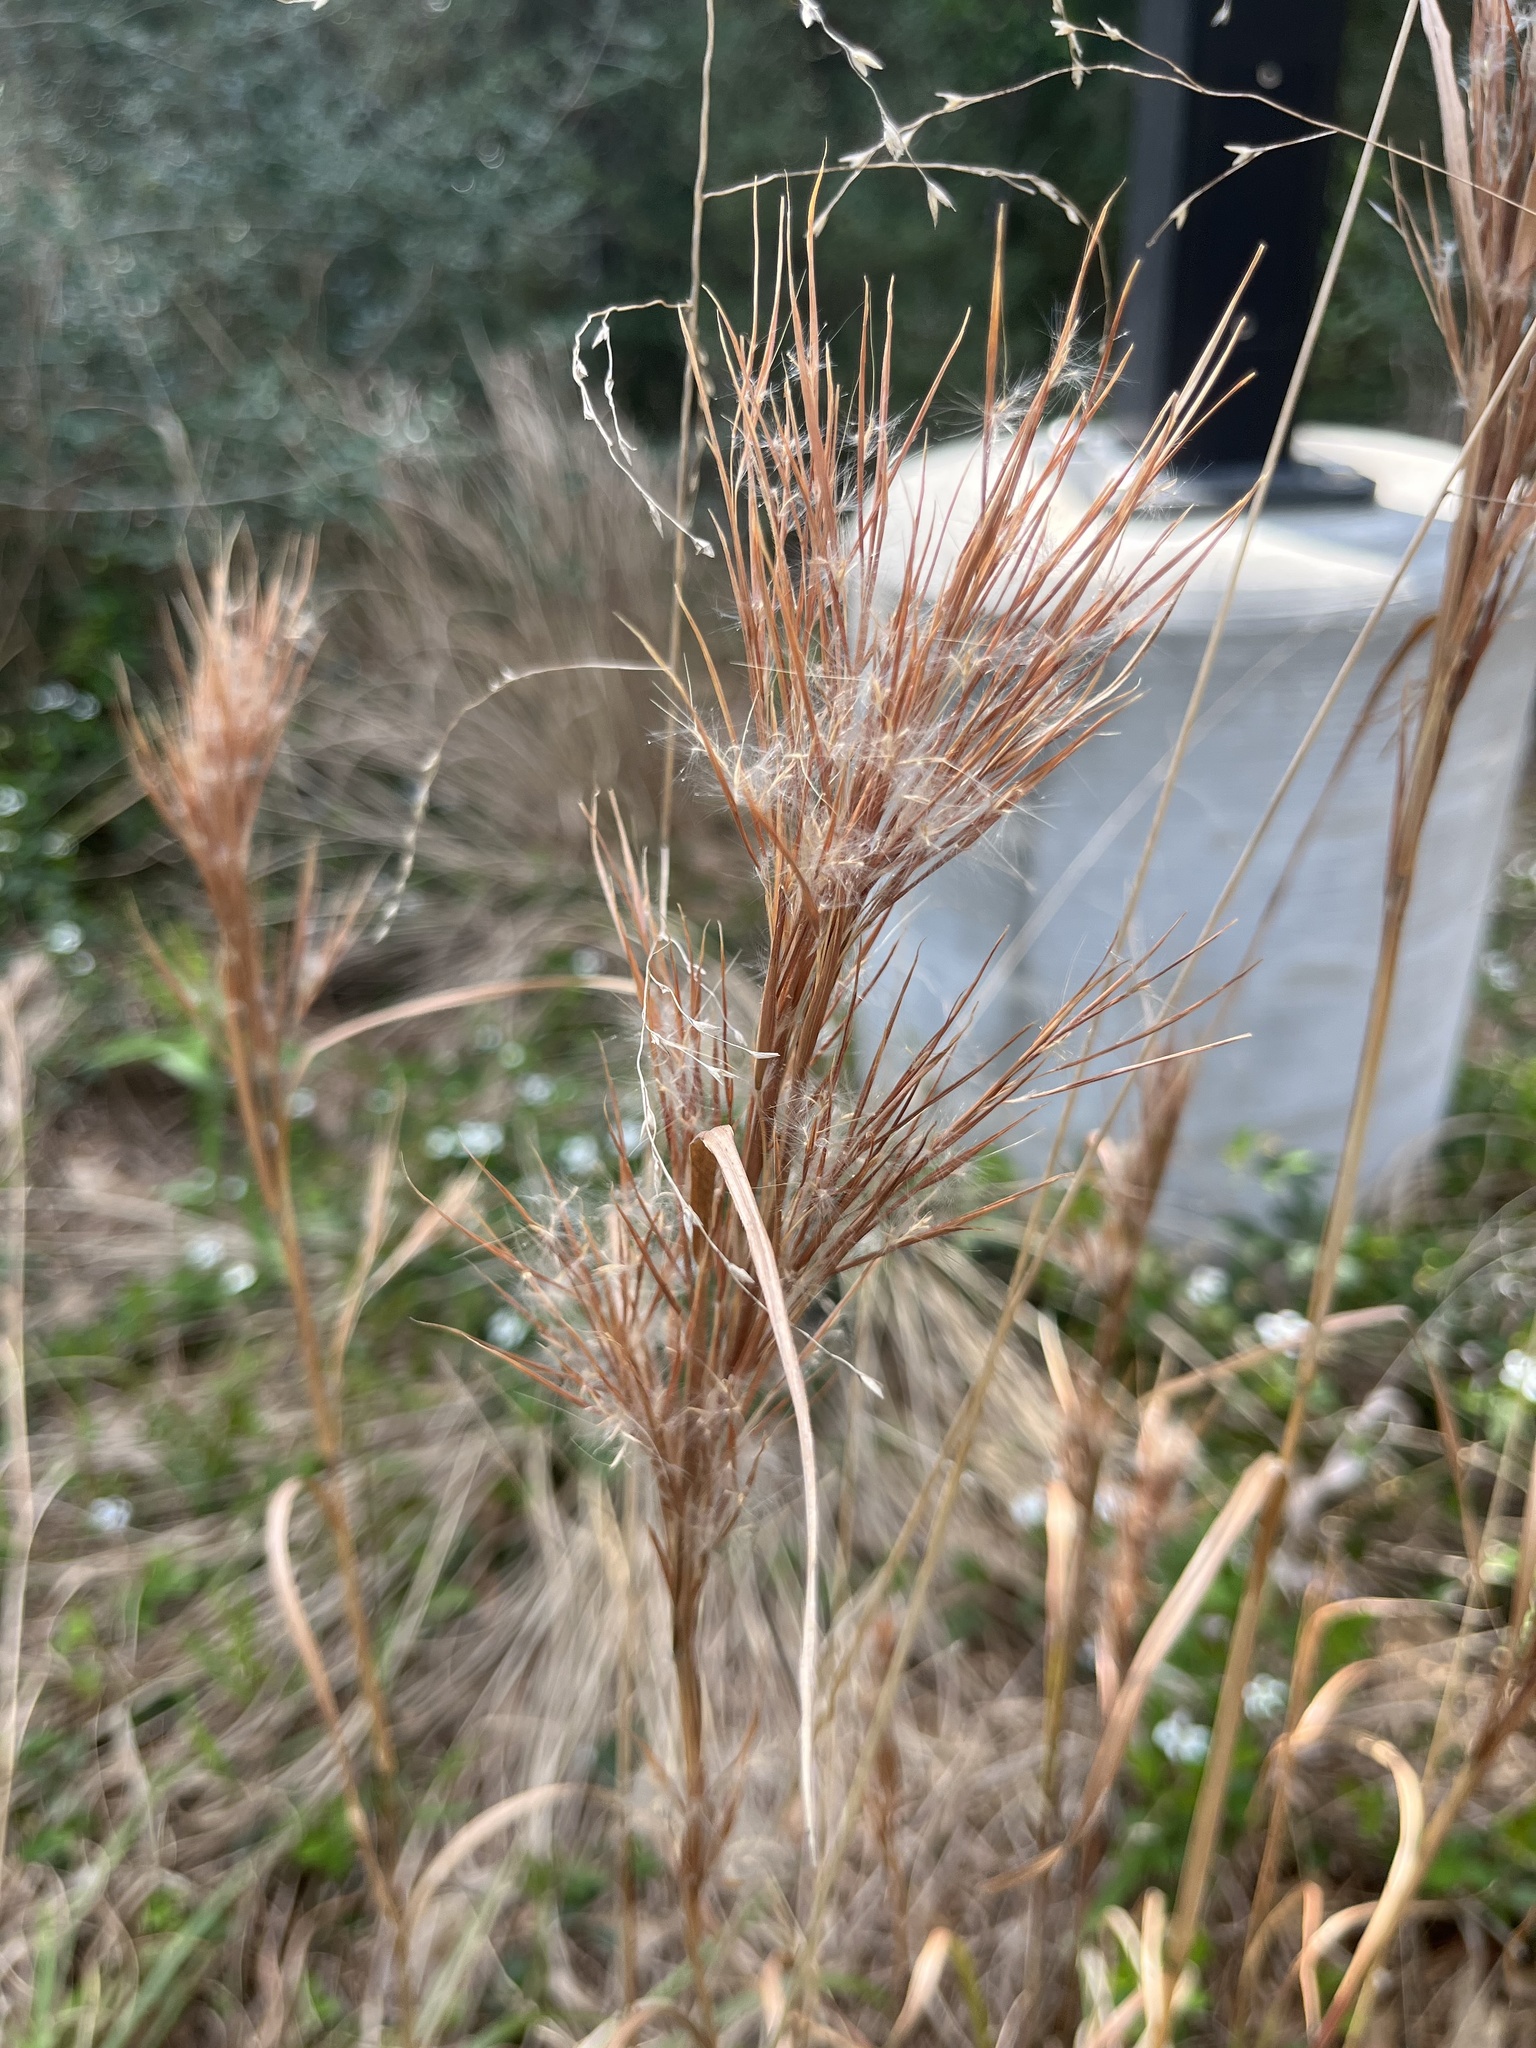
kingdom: Plantae
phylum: Tracheophyta
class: Liliopsida
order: Poales
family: Poaceae
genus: Andropogon
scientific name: Andropogon tenuispatheus
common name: Bushy bluestem
